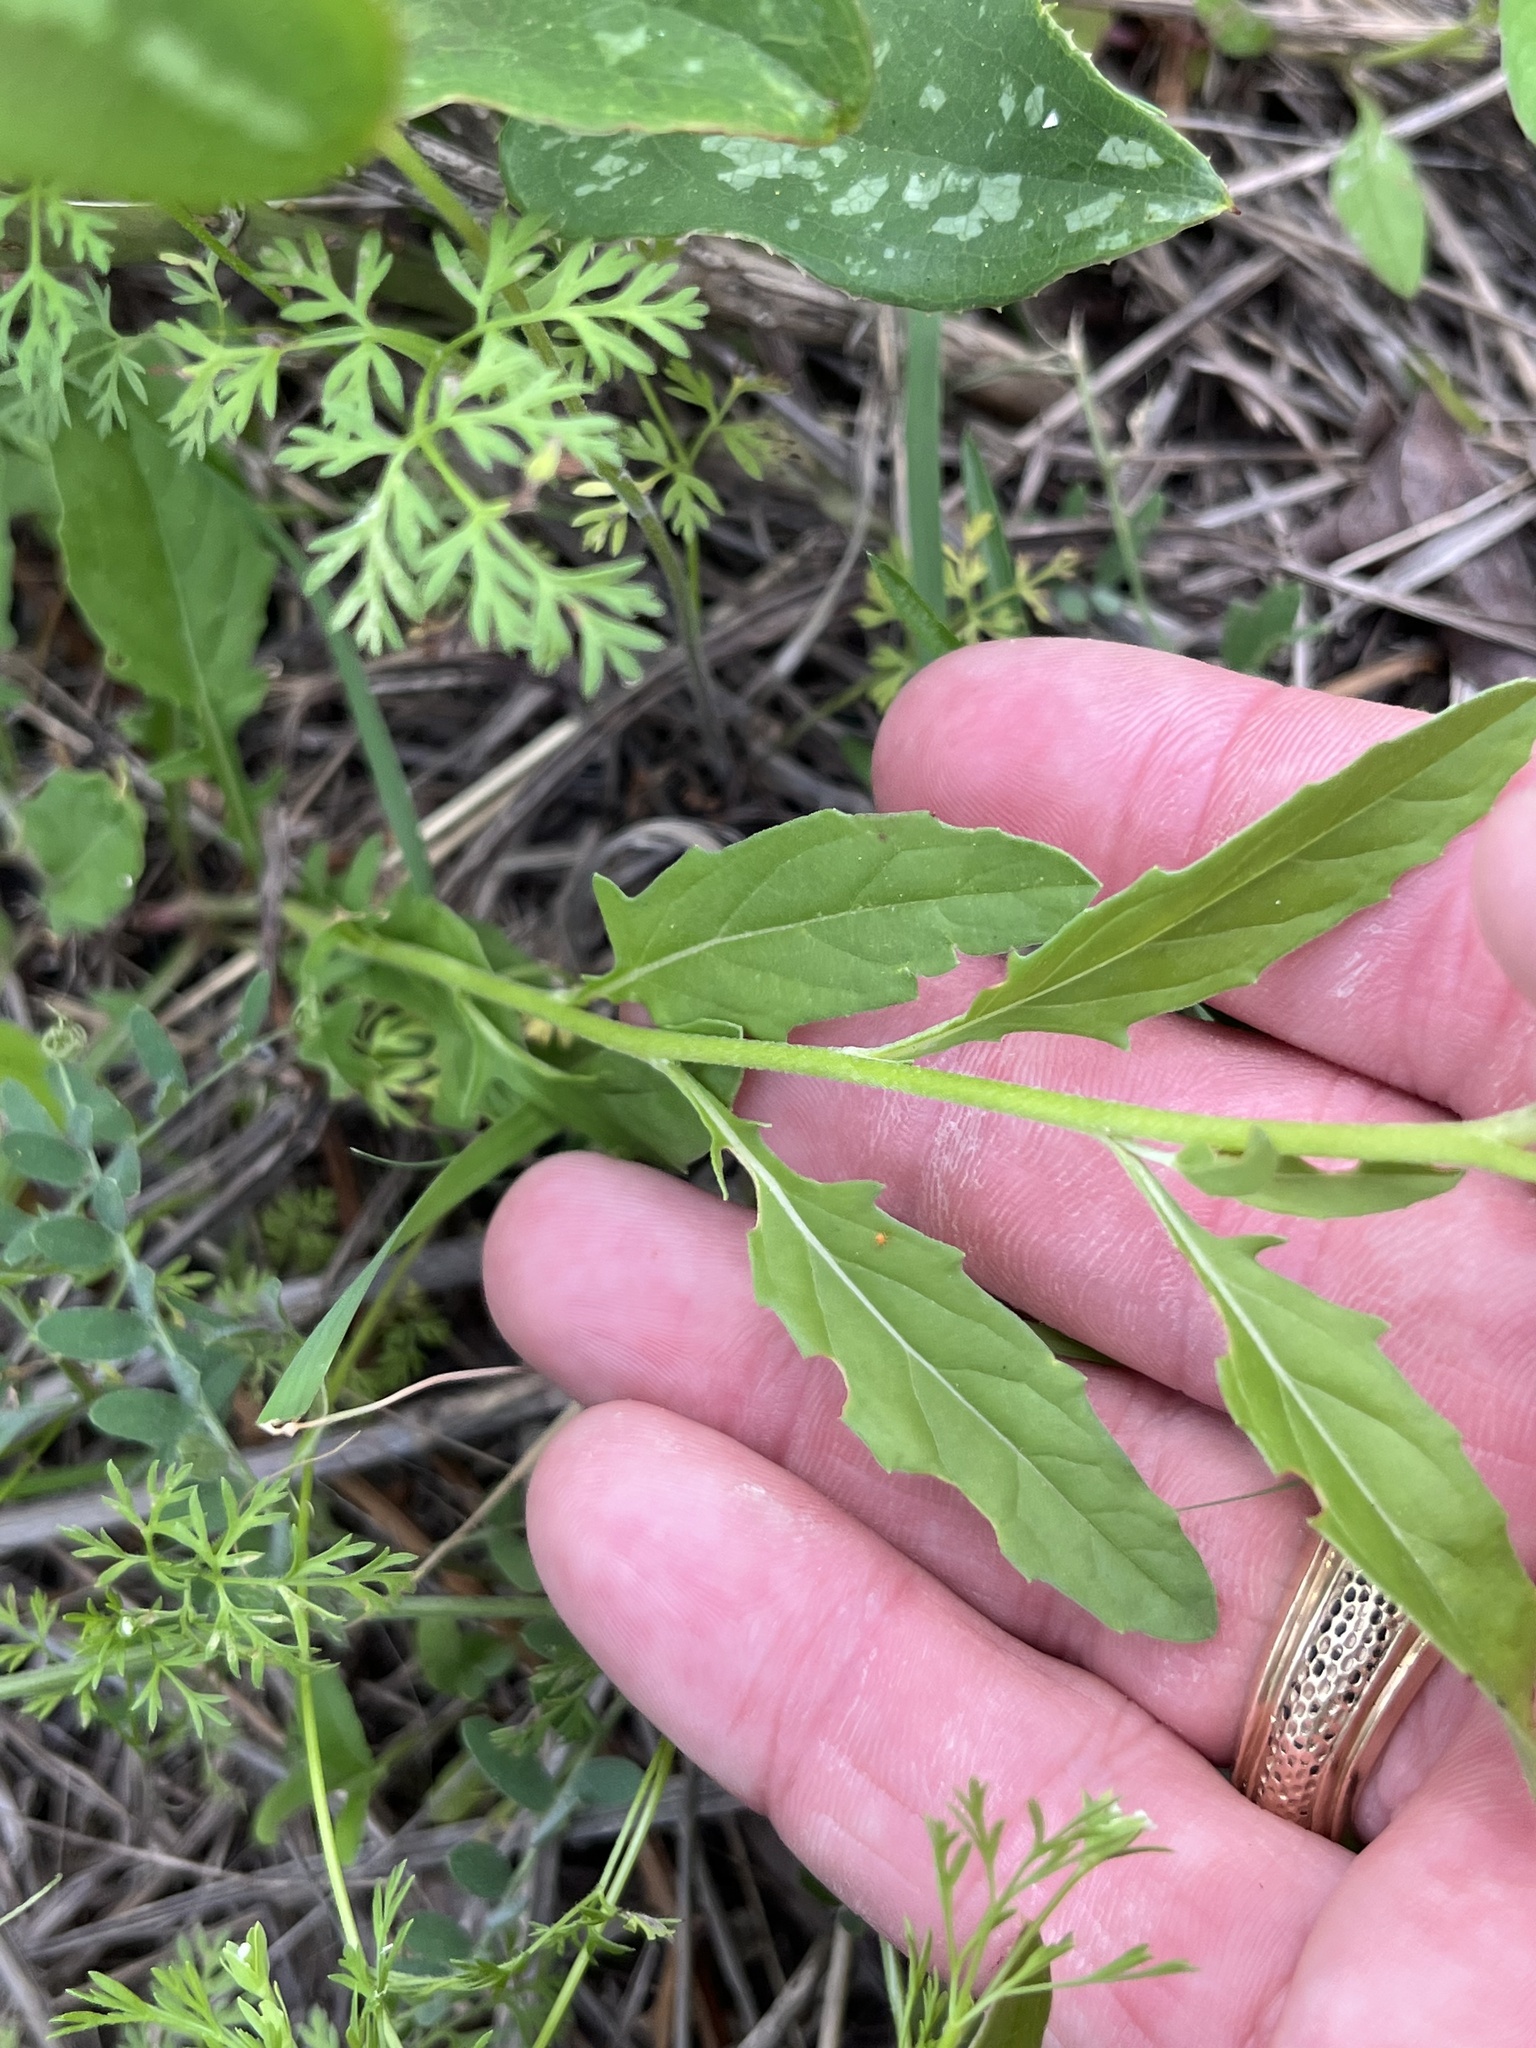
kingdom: Plantae
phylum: Tracheophyta
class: Magnoliopsida
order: Myrtales
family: Onagraceae
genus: Oenothera
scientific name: Oenothera speciosa
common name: White evening-primrose
